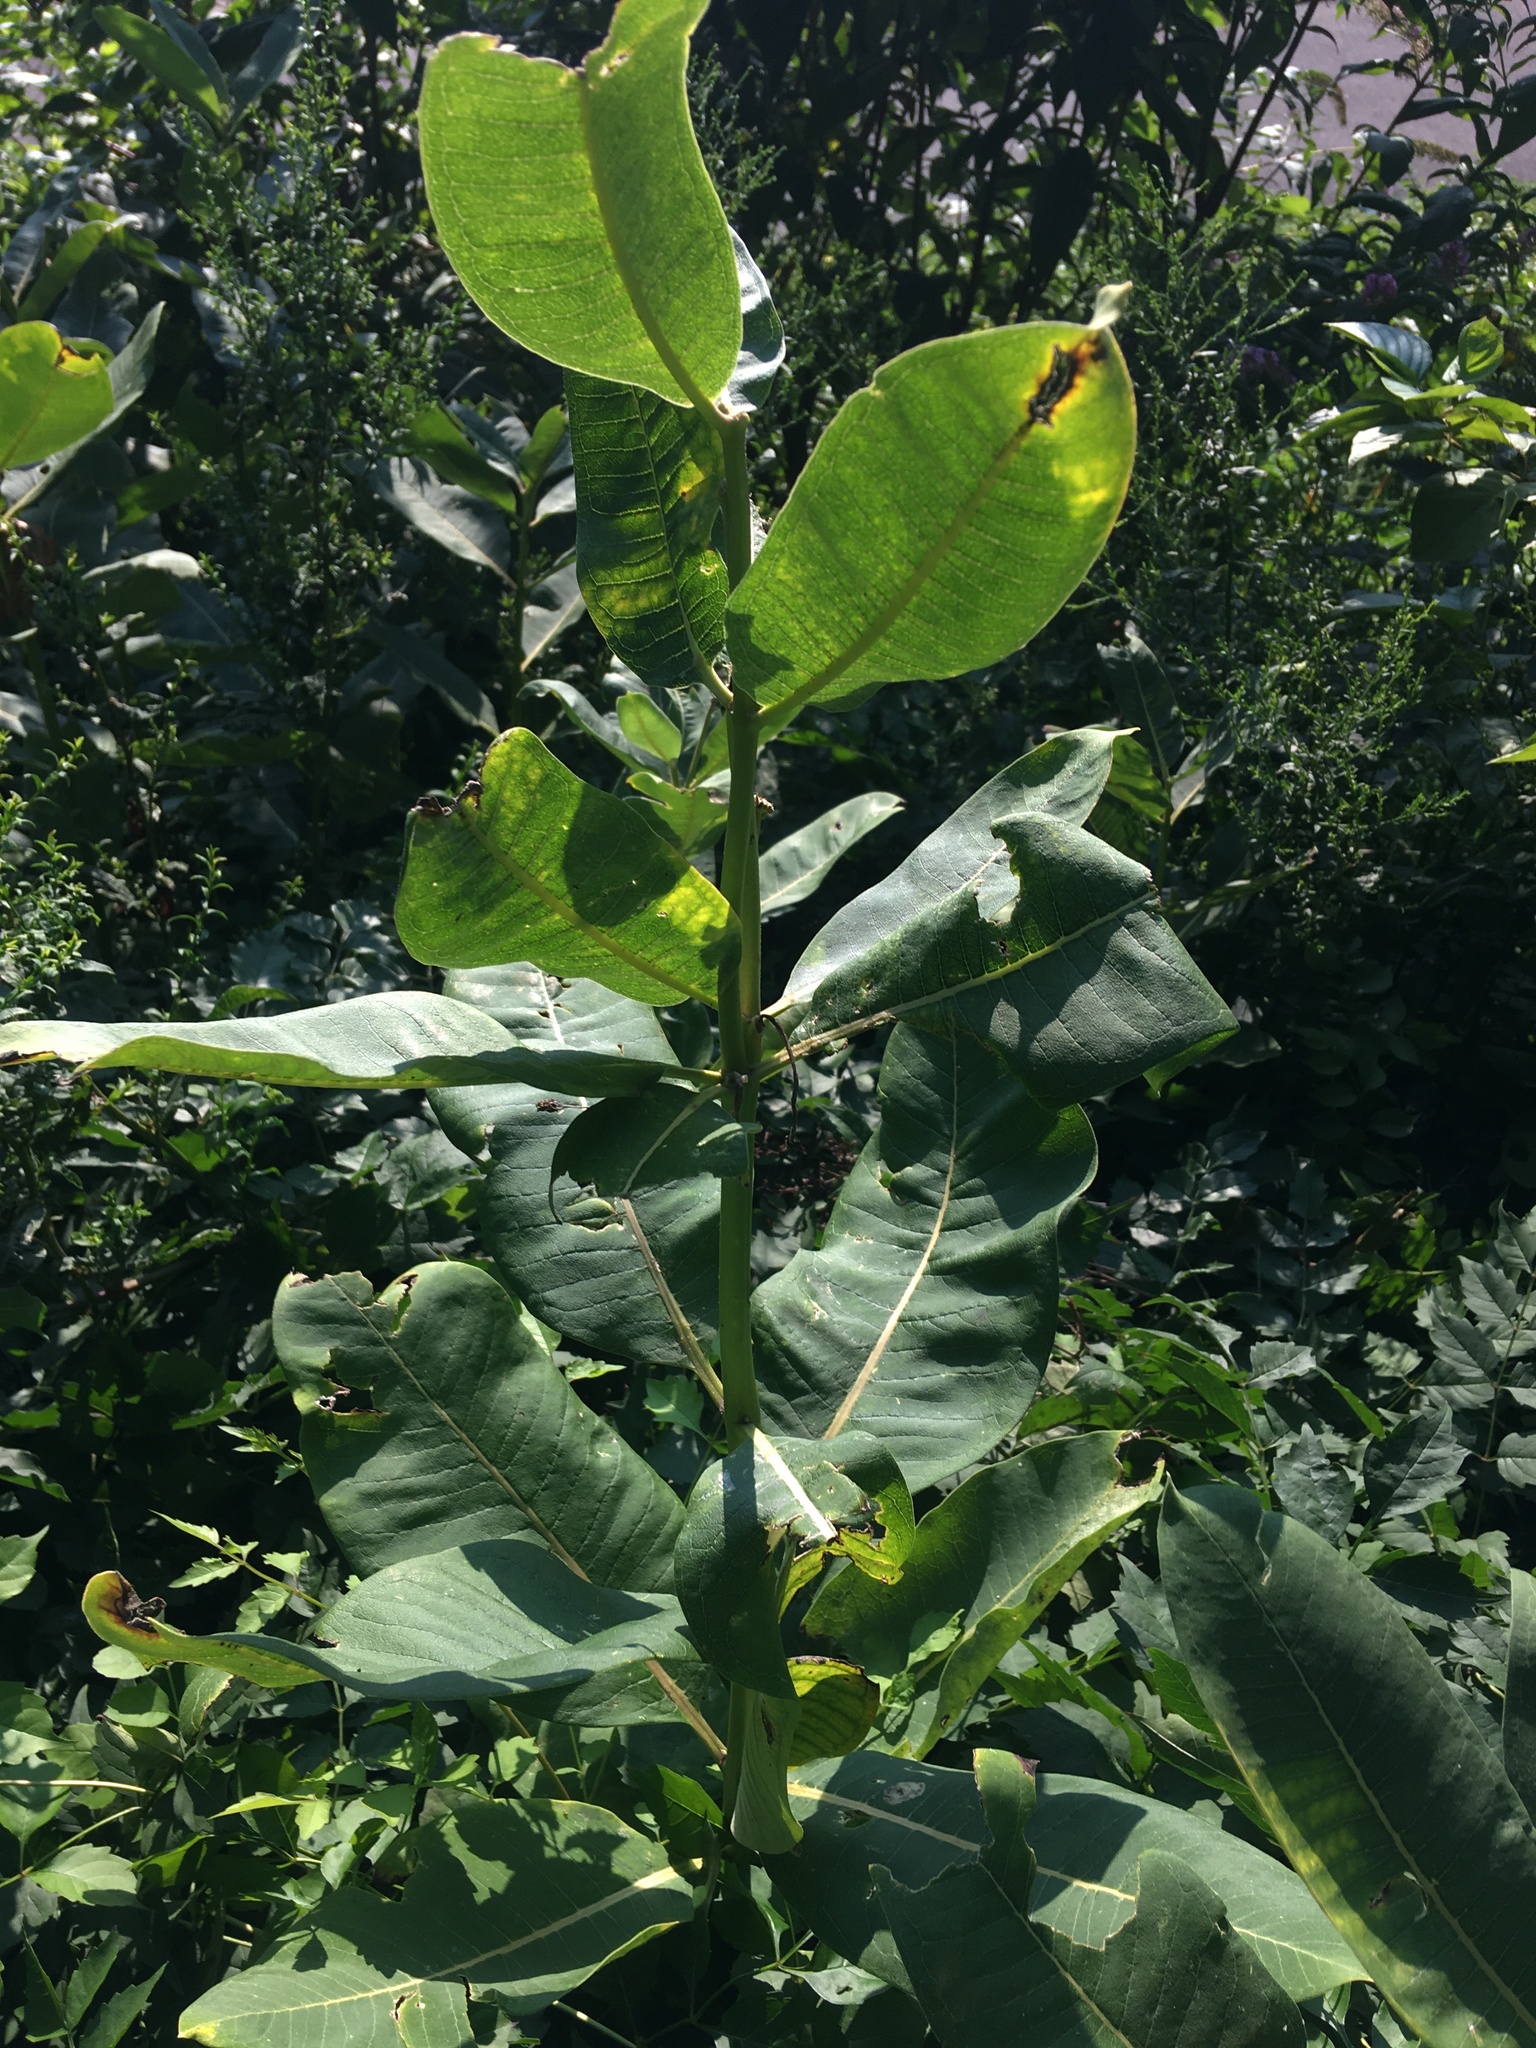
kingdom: Plantae
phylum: Tracheophyta
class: Magnoliopsida
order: Gentianales
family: Apocynaceae
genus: Asclepias
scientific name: Asclepias syriaca
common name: Common milkweed
